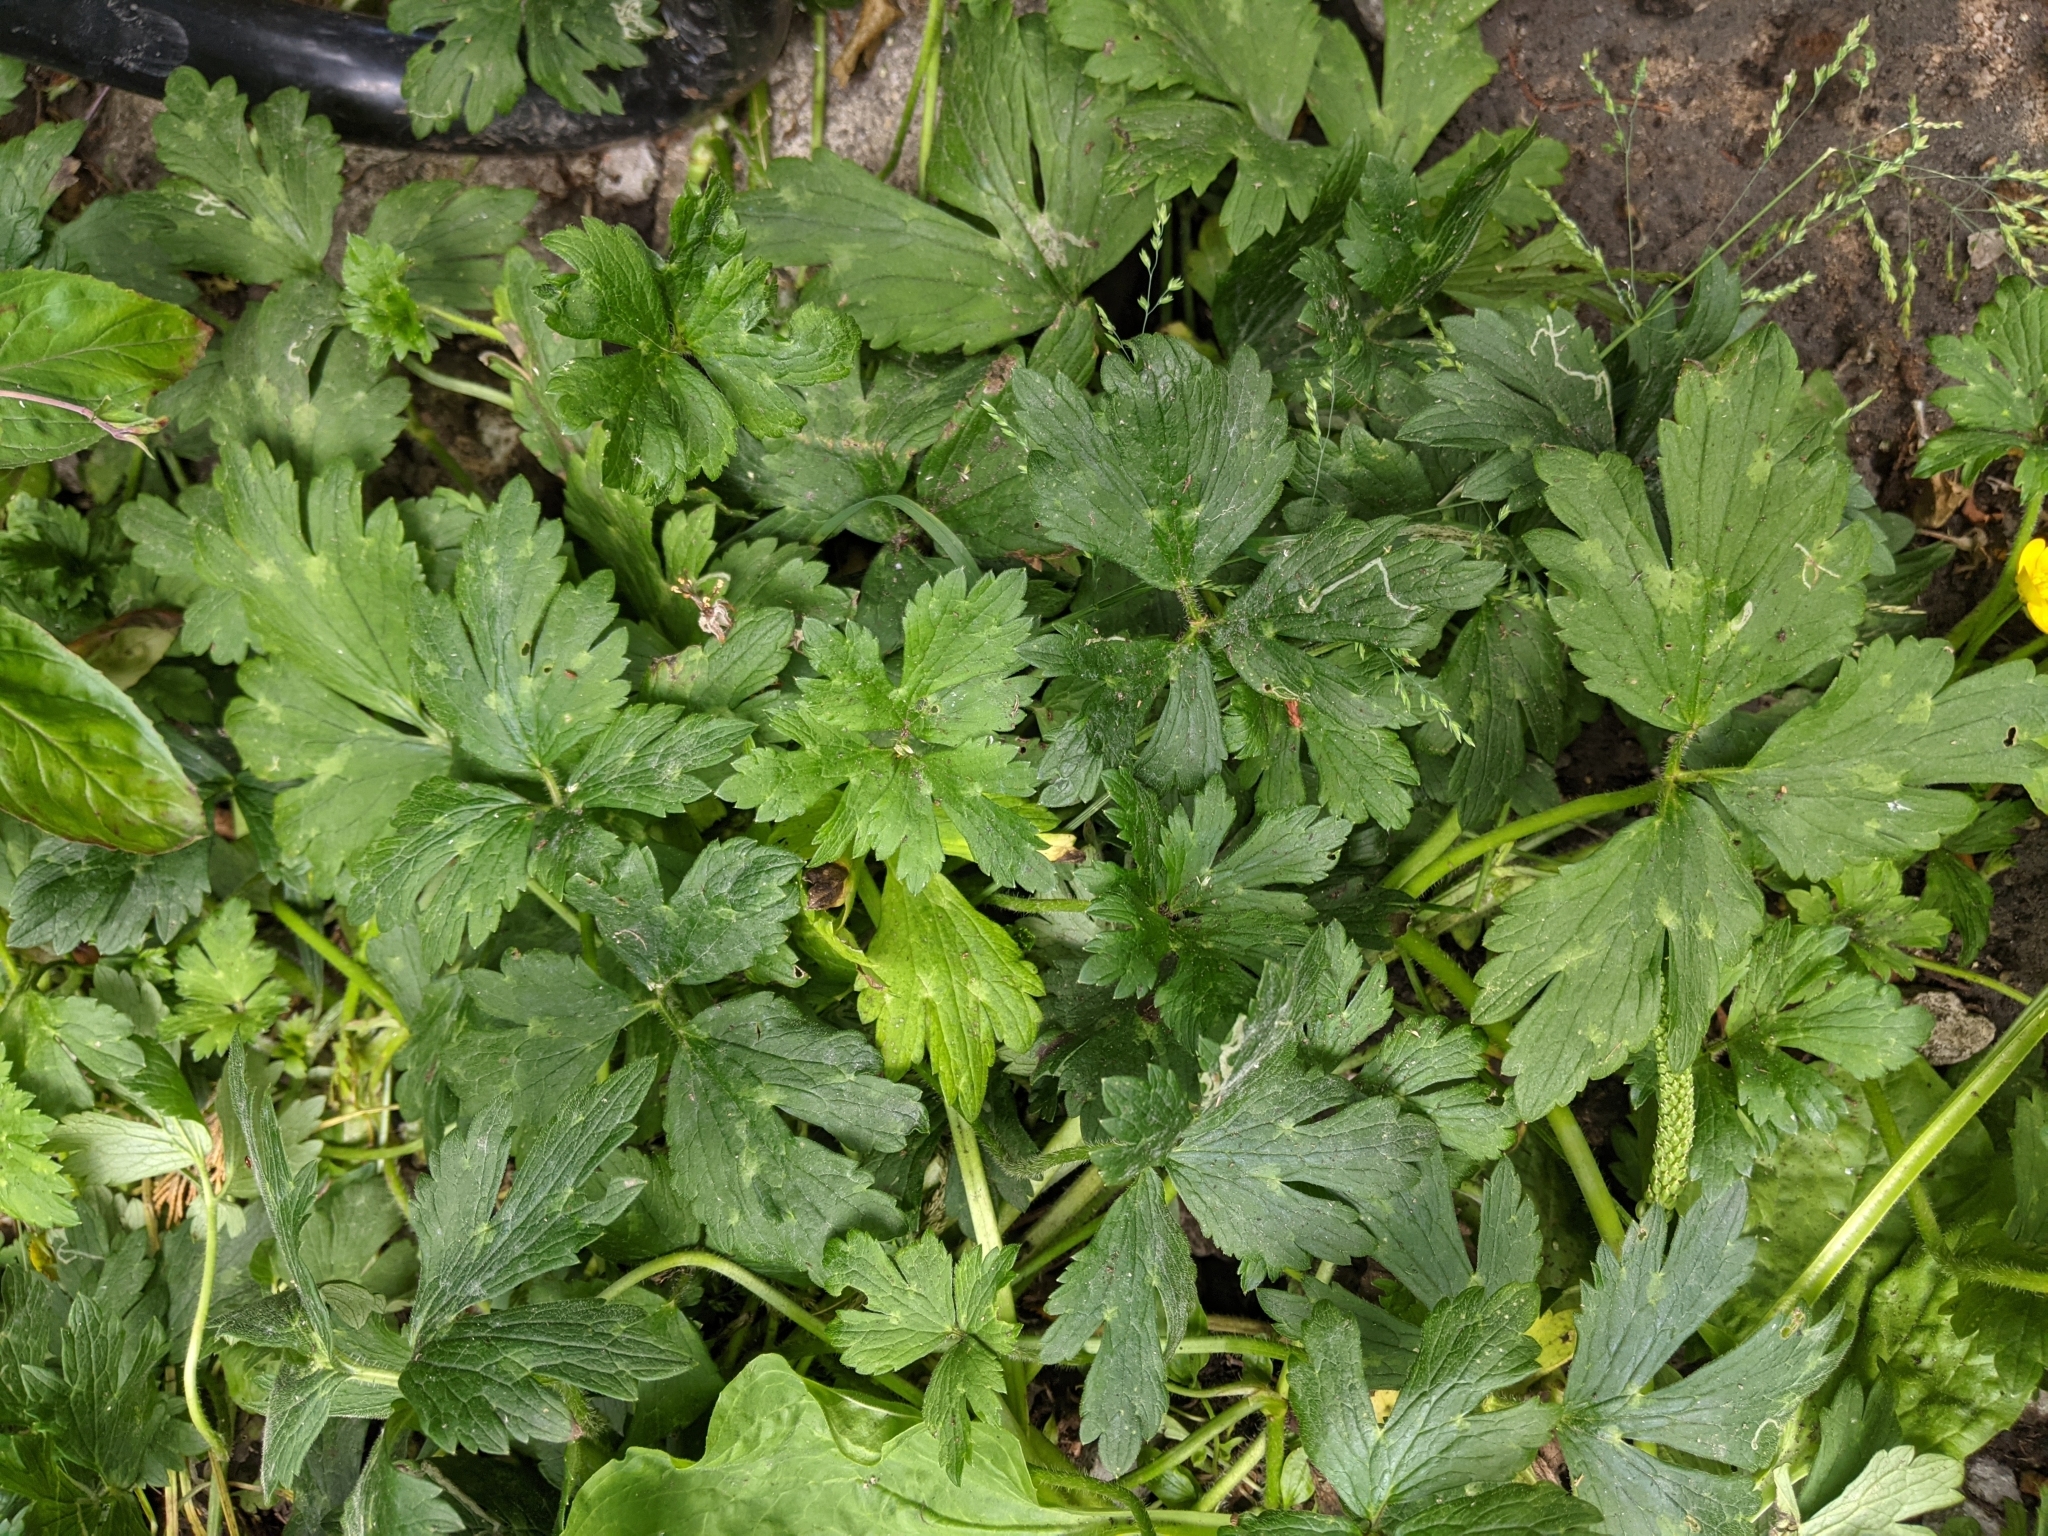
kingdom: Plantae
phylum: Tracheophyta
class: Magnoliopsida
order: Ranunculales
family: Ranunculaceae
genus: Ranunculus
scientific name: Ranunculus repens
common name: Creeping buttercup
